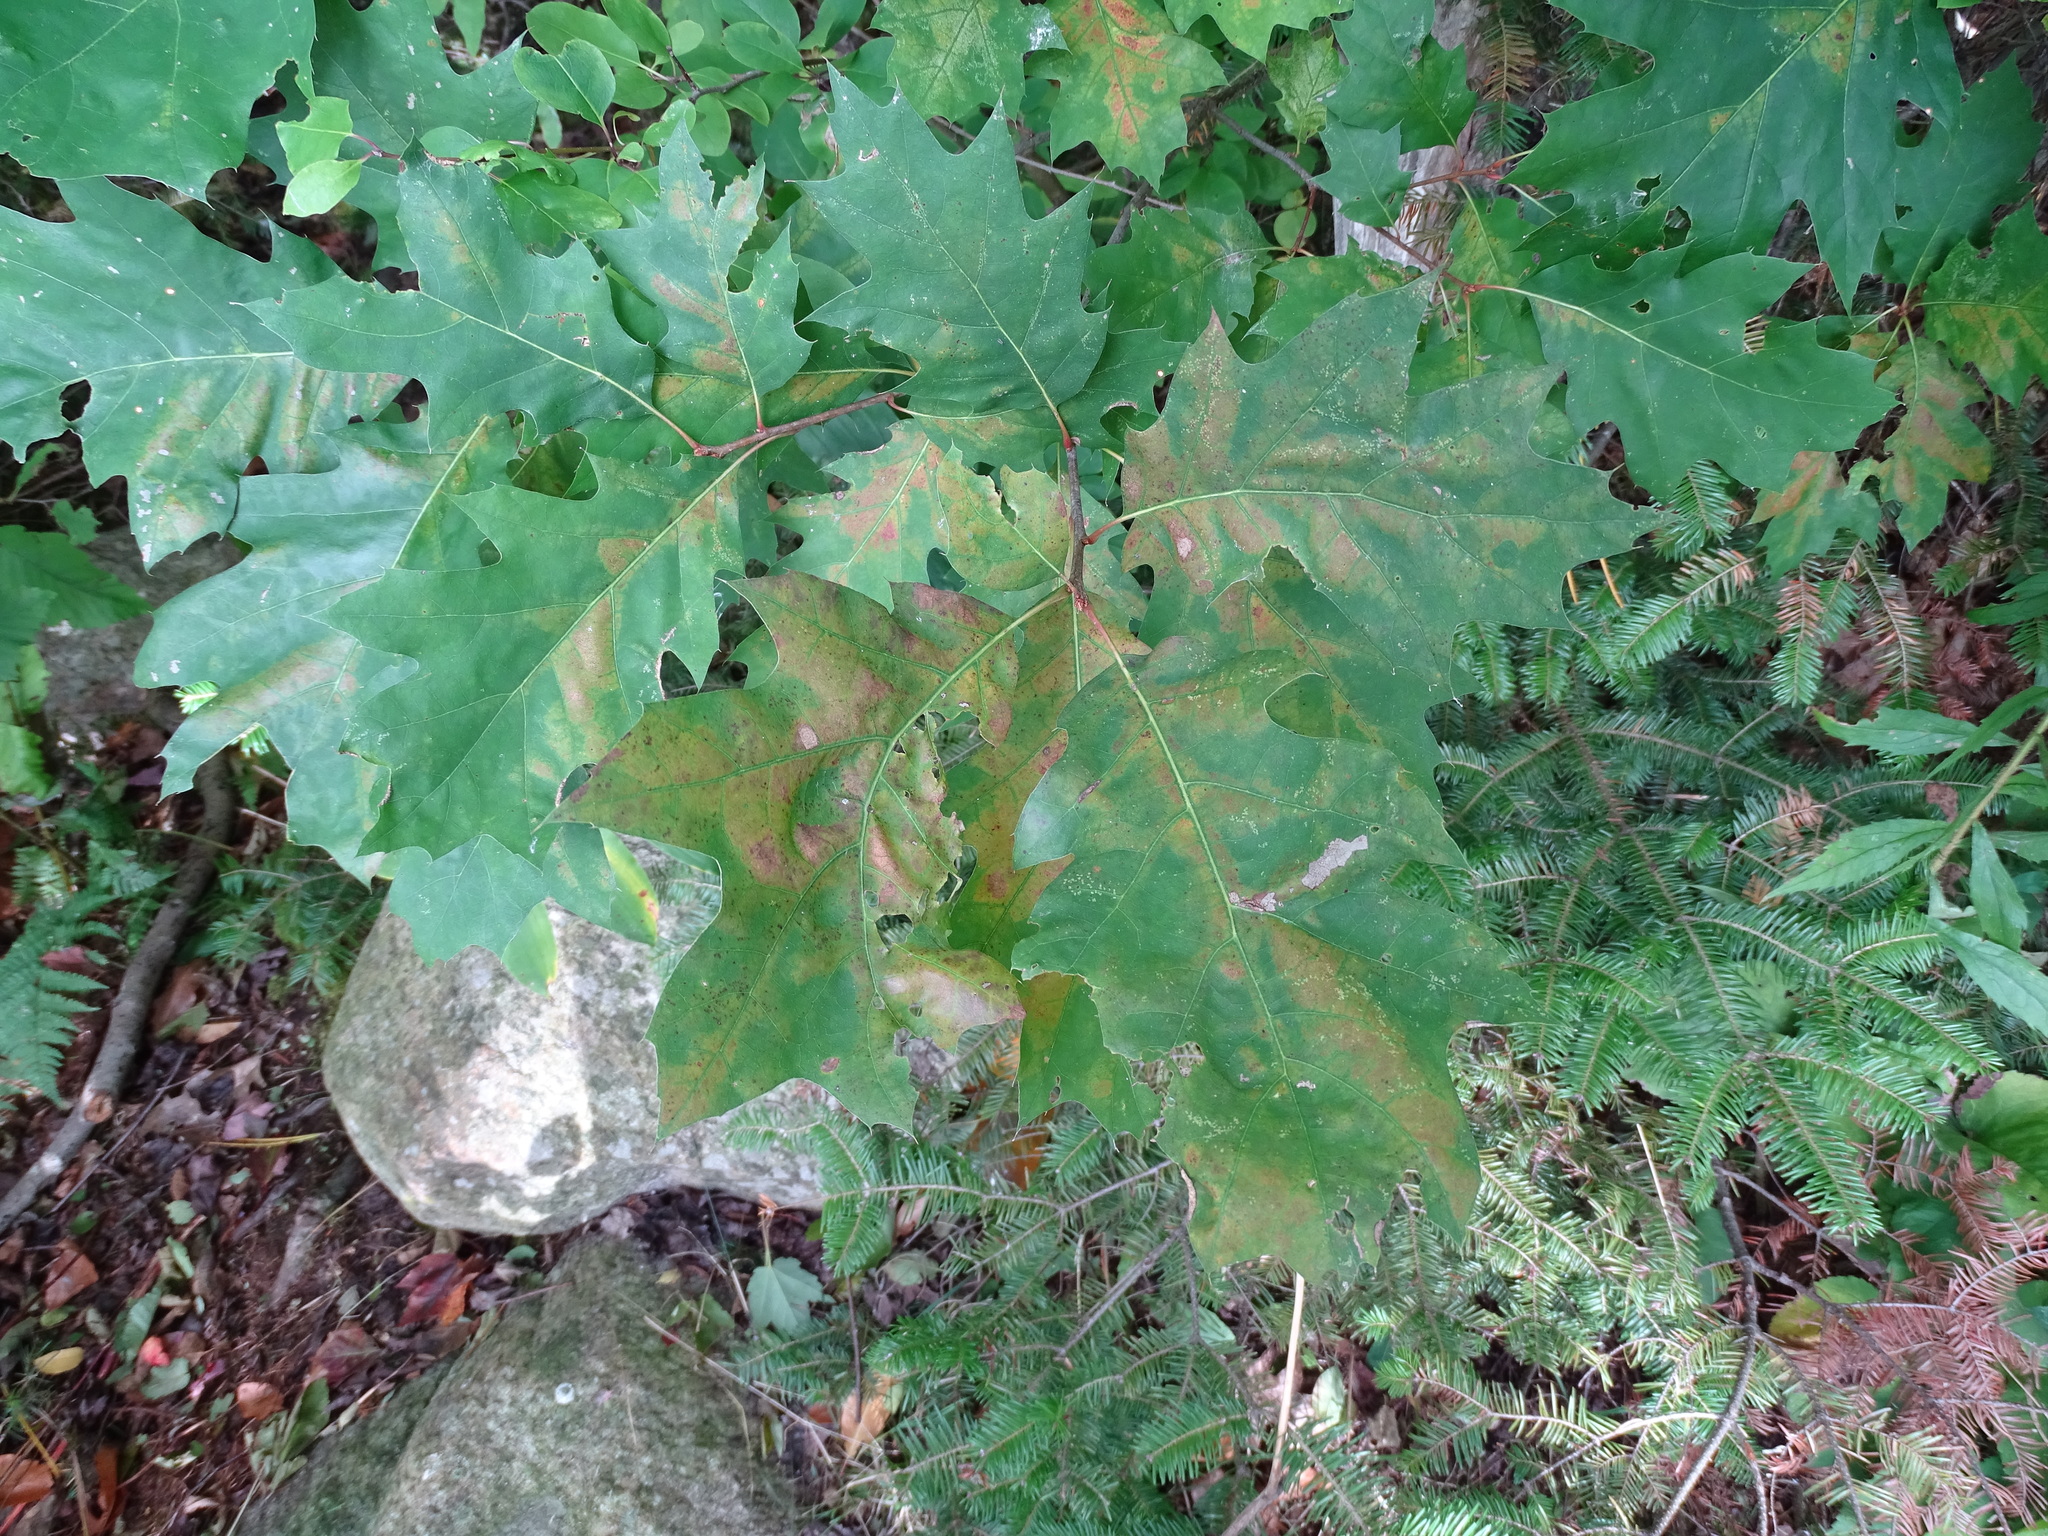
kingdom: Plantae
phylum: Tracheophyta
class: Magnoliopsida
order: Fagales
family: Fagaceae
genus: Quercus
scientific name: Quercus rubra
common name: Red oak
